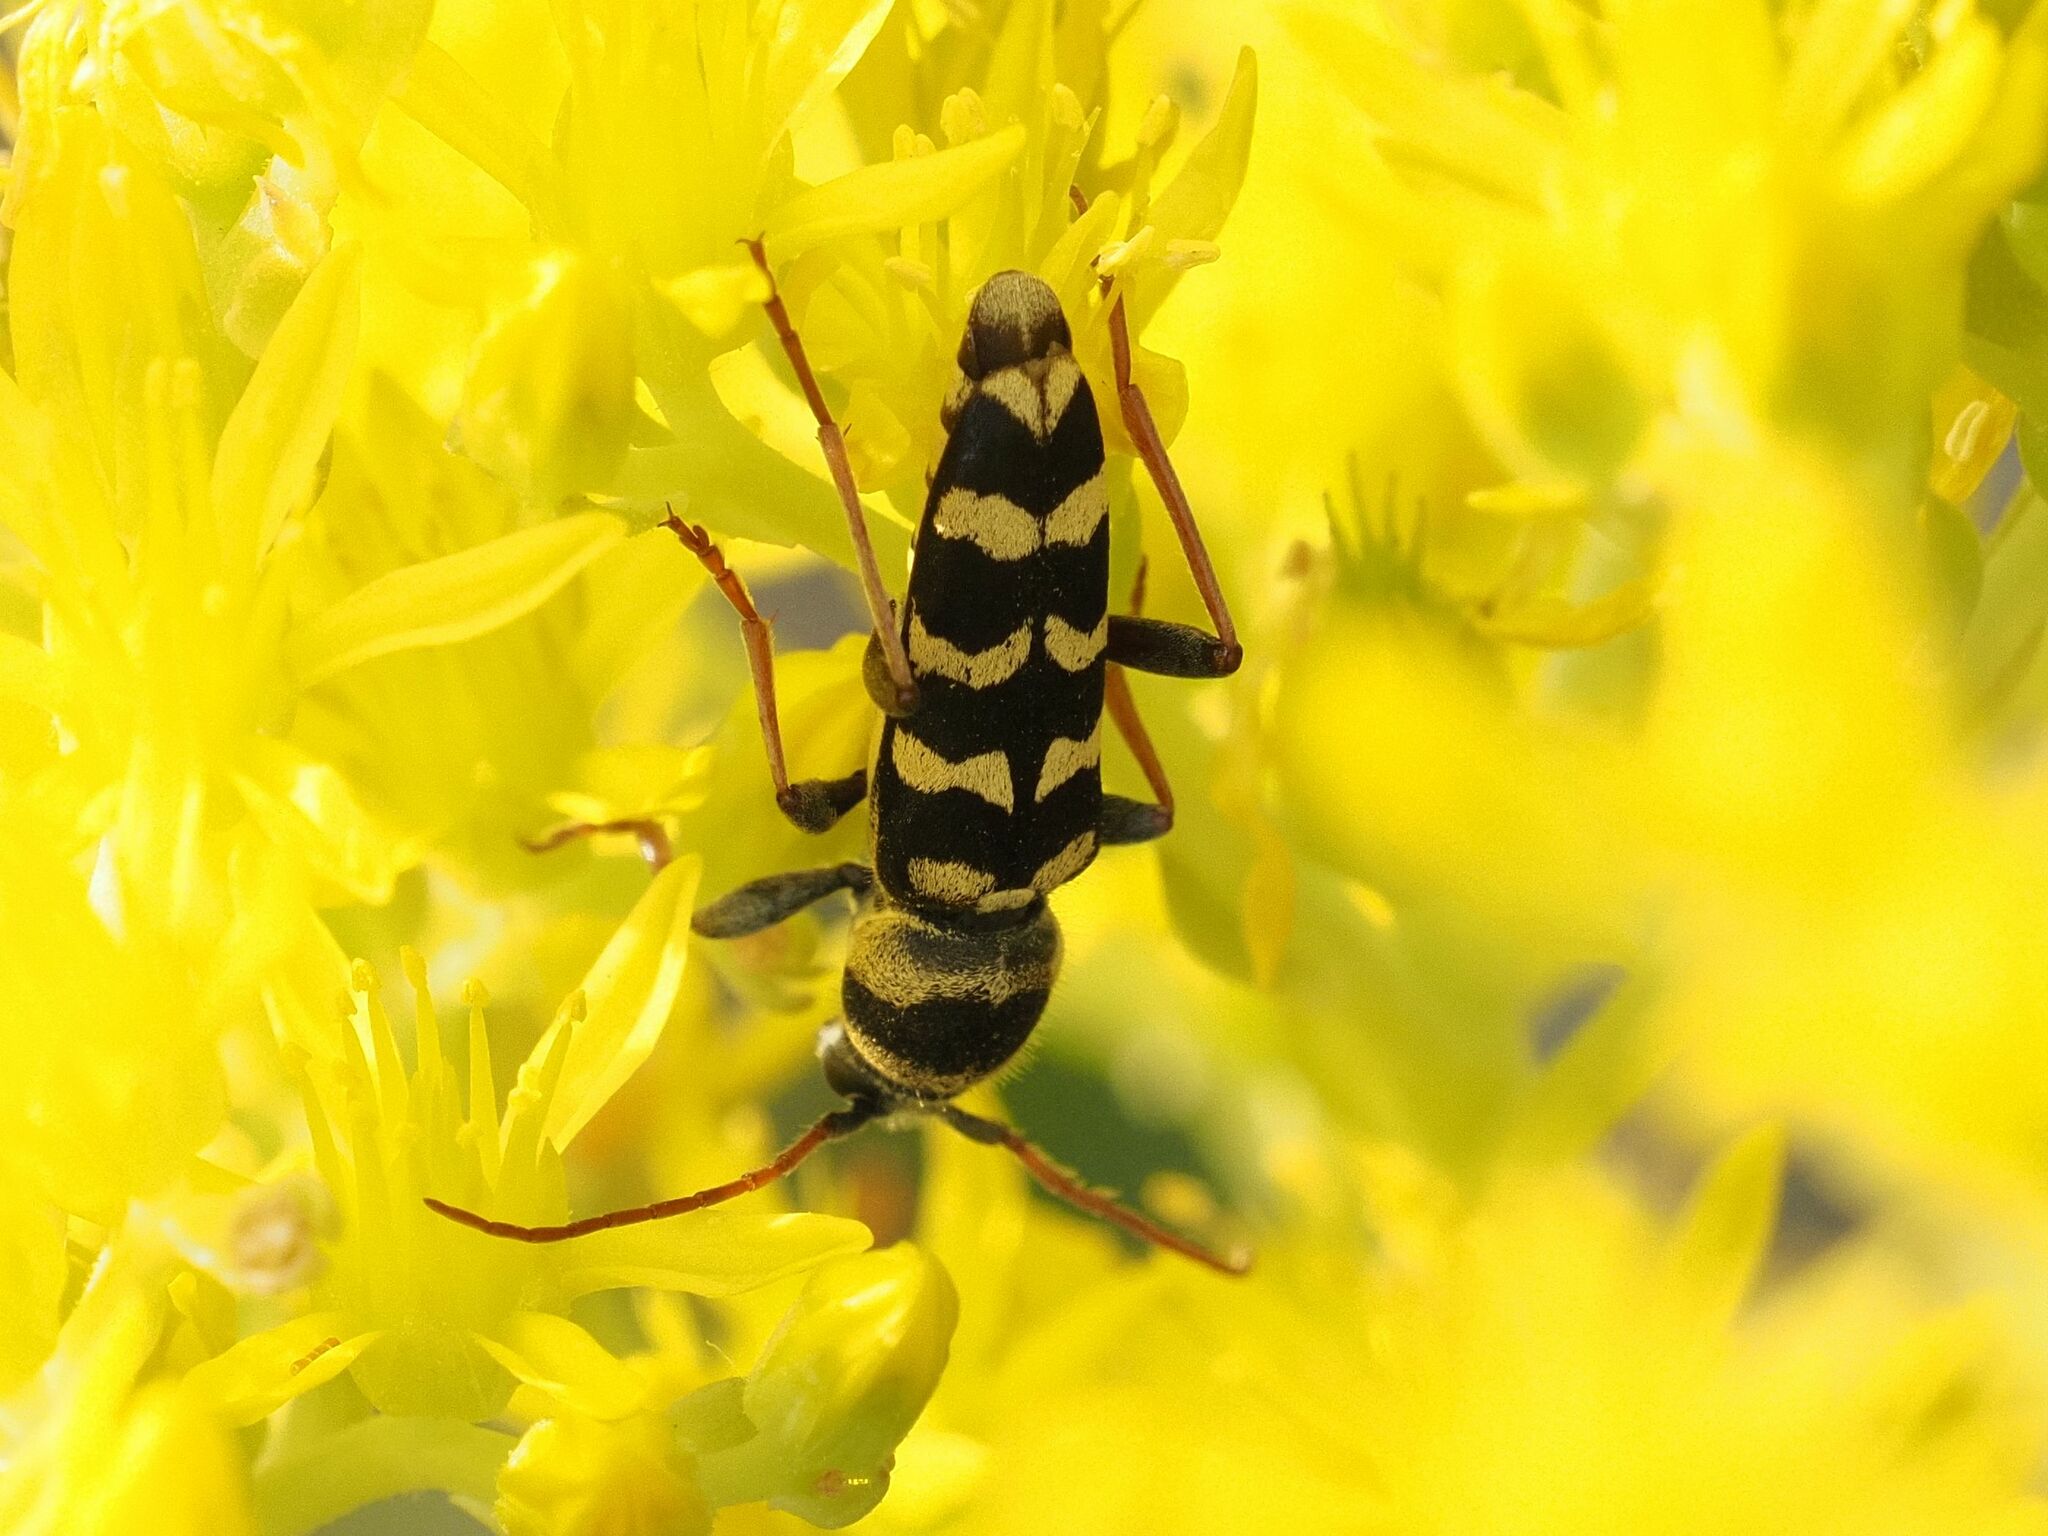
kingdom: Animalia
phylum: Arthropoda
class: Insecta
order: Coleoptera
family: Cerambycidae
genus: Plagionotus
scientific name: Plagionotus floralis
